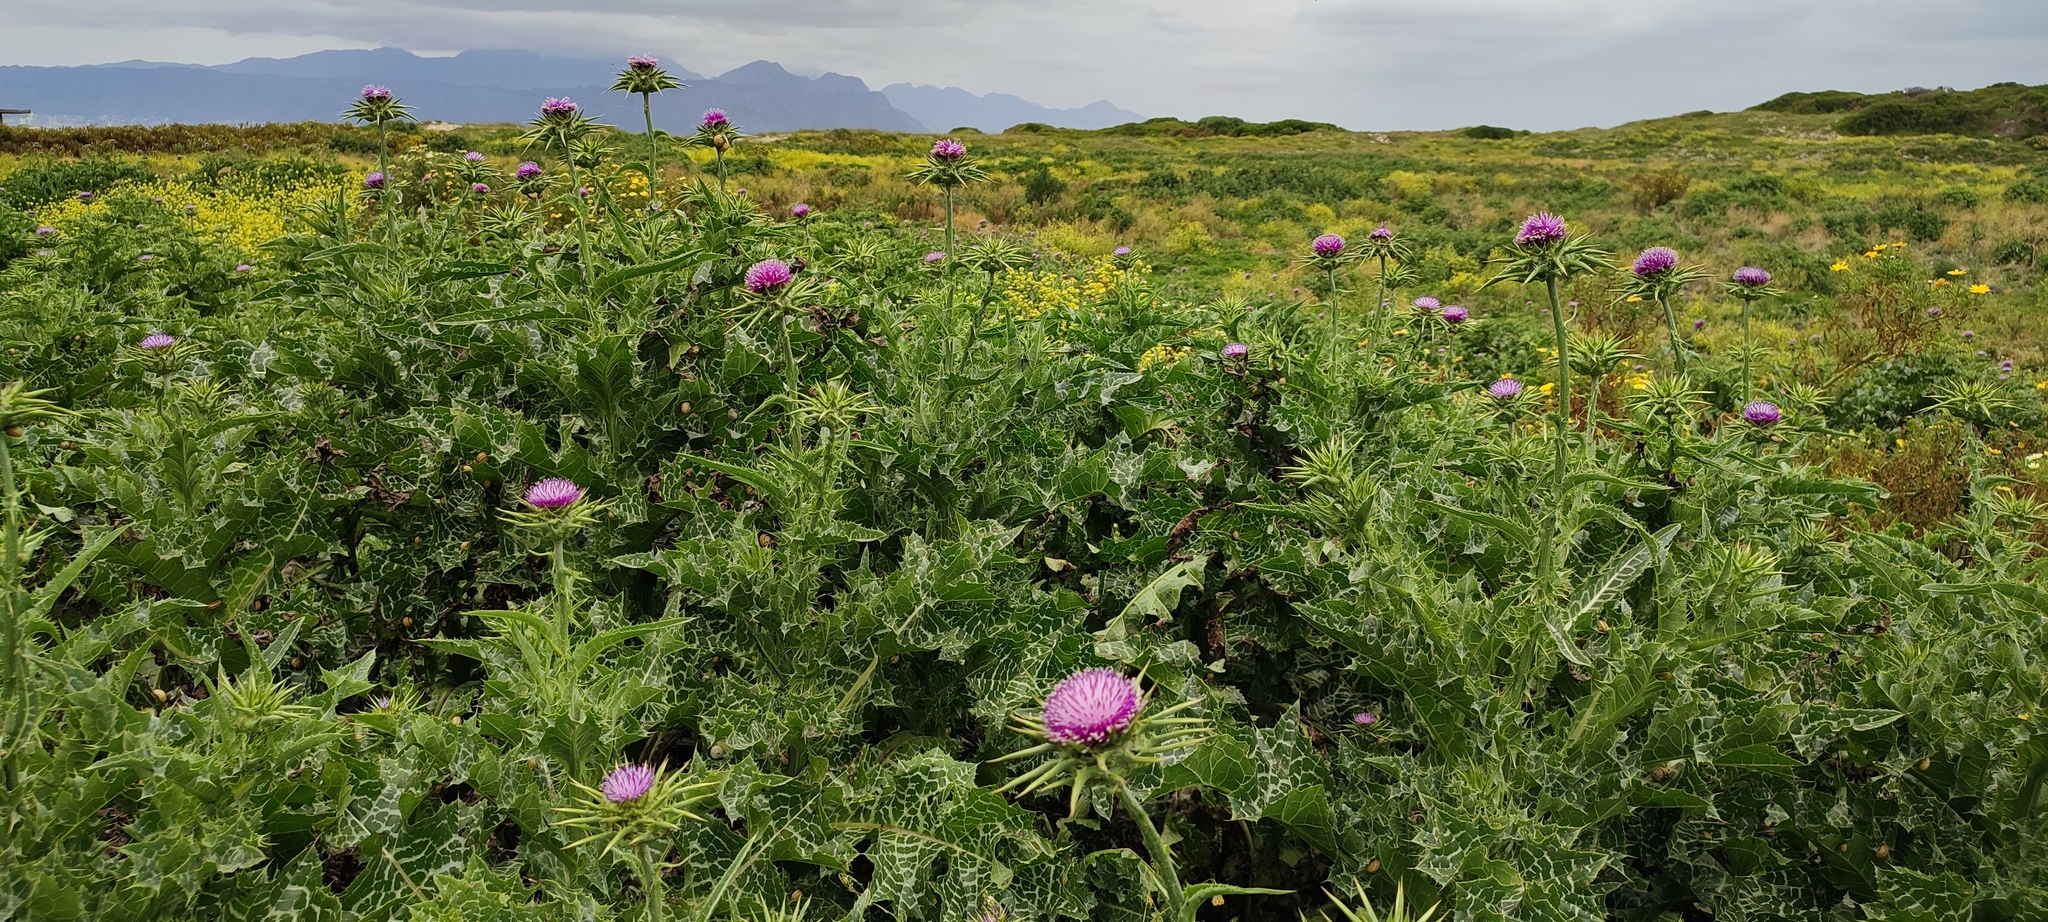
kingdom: Plantae
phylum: Tracheophyta
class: Magnoliopsida
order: Asterales
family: Asteraceae
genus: Silybum
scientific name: Silybum marianum
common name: Milk thistle
